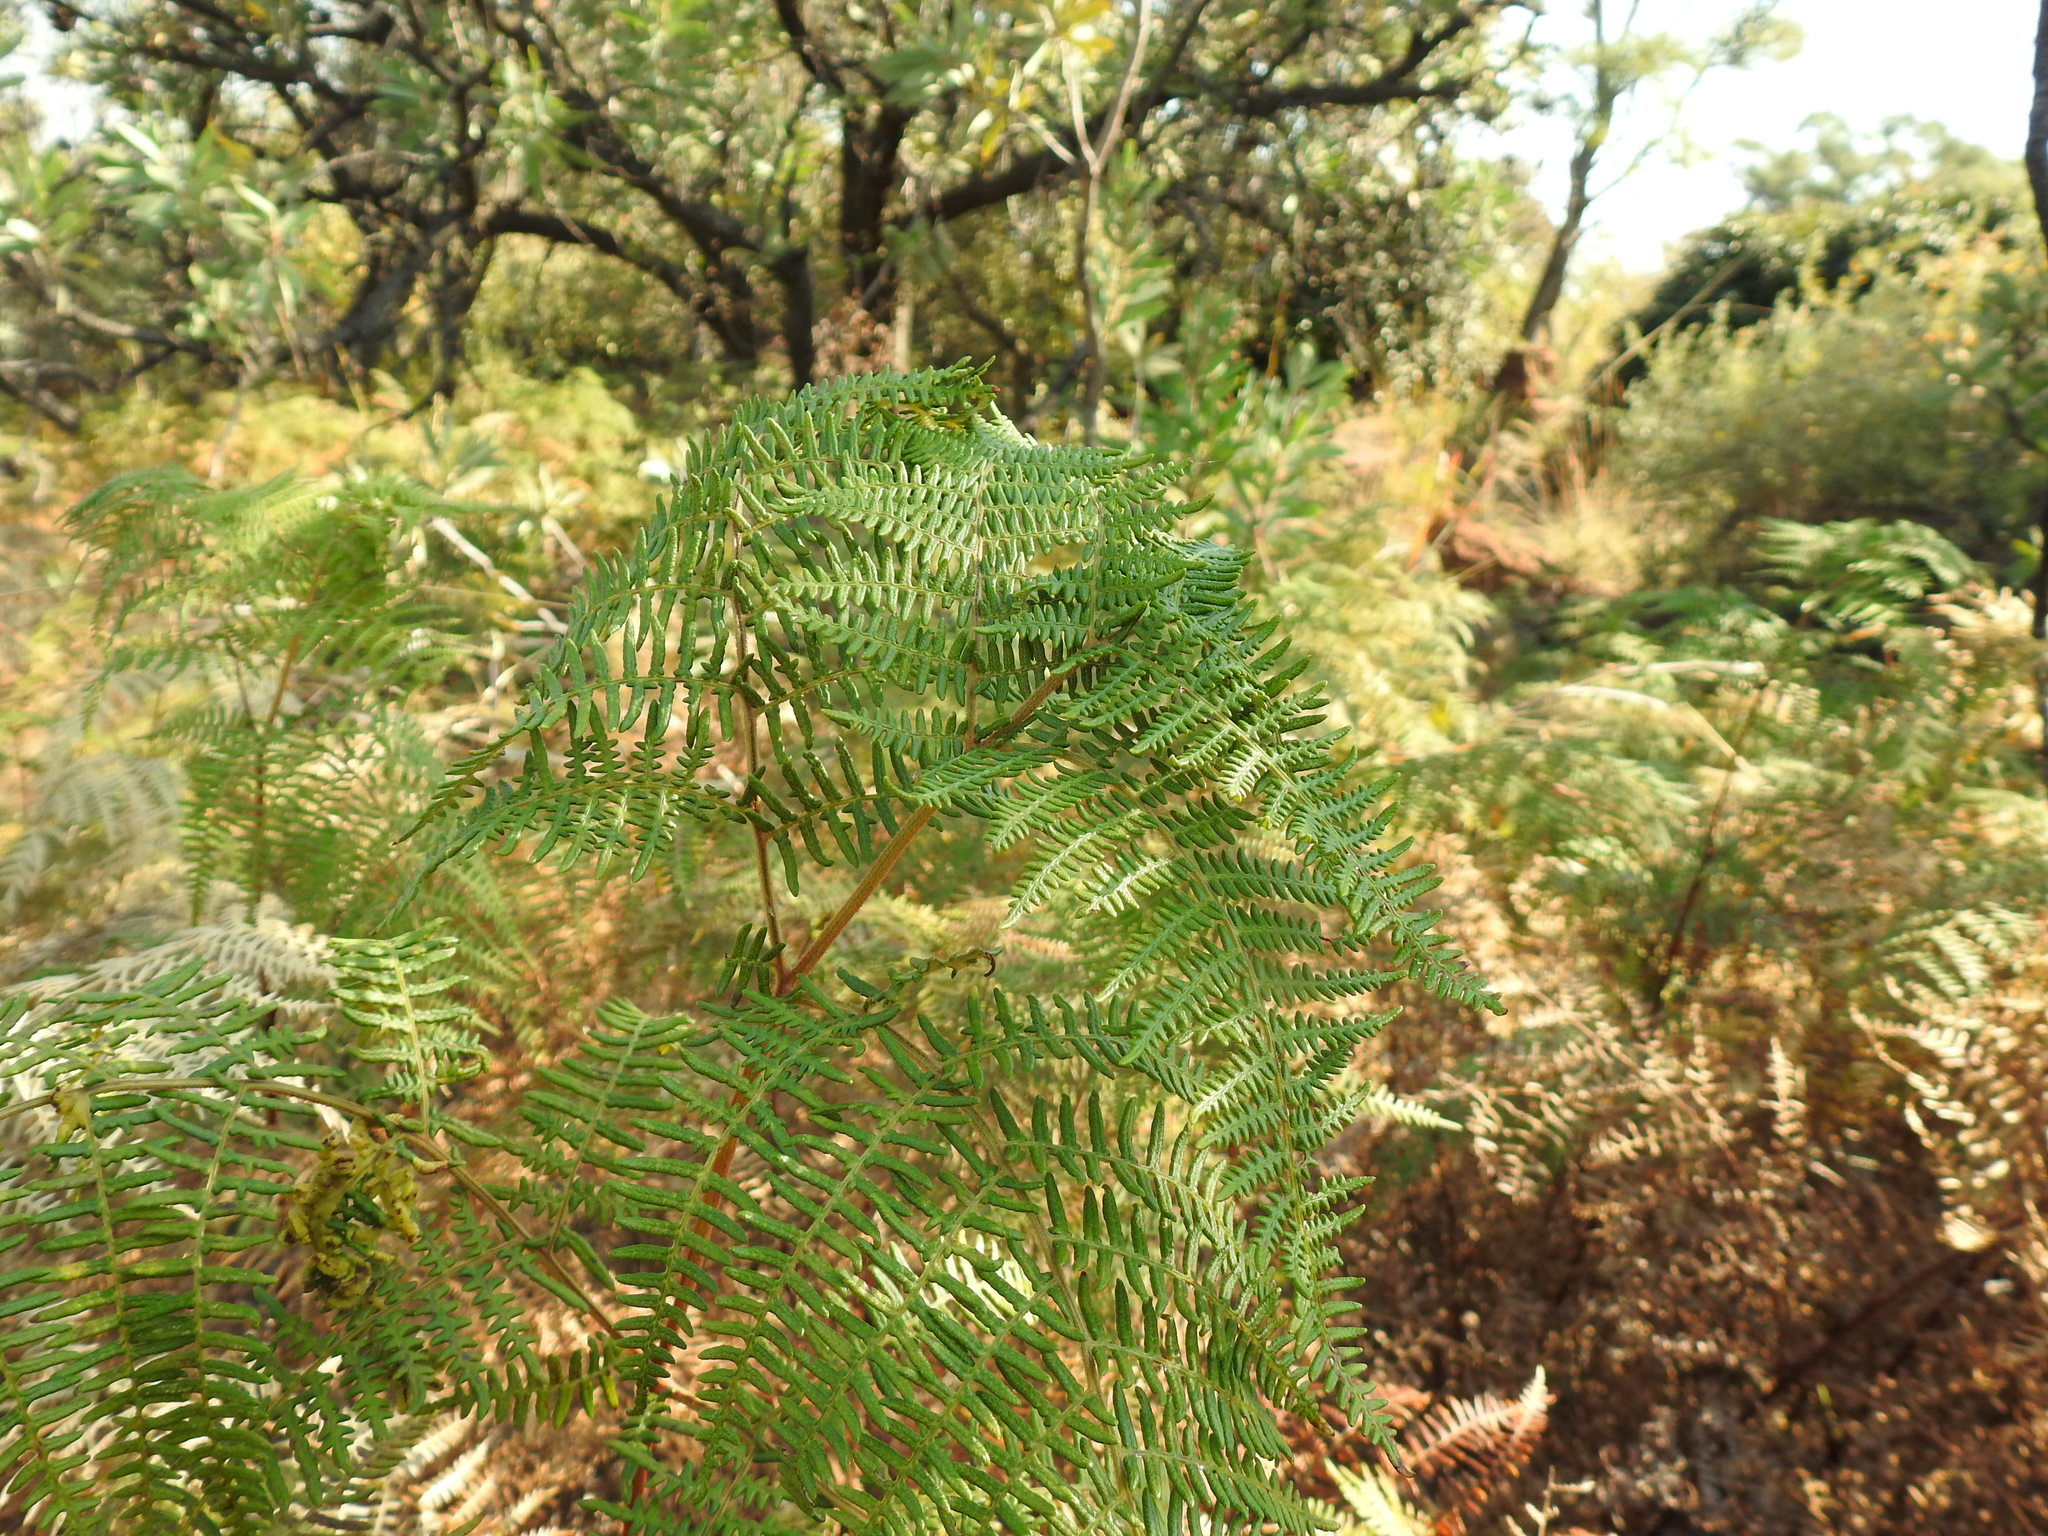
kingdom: Plantae
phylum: Tracheophyta
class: Polypodiopsida
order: Polypodiales
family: Dennstaedtiaceae
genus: Pteridium
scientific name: Pteridium aquilinum
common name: Bracken
